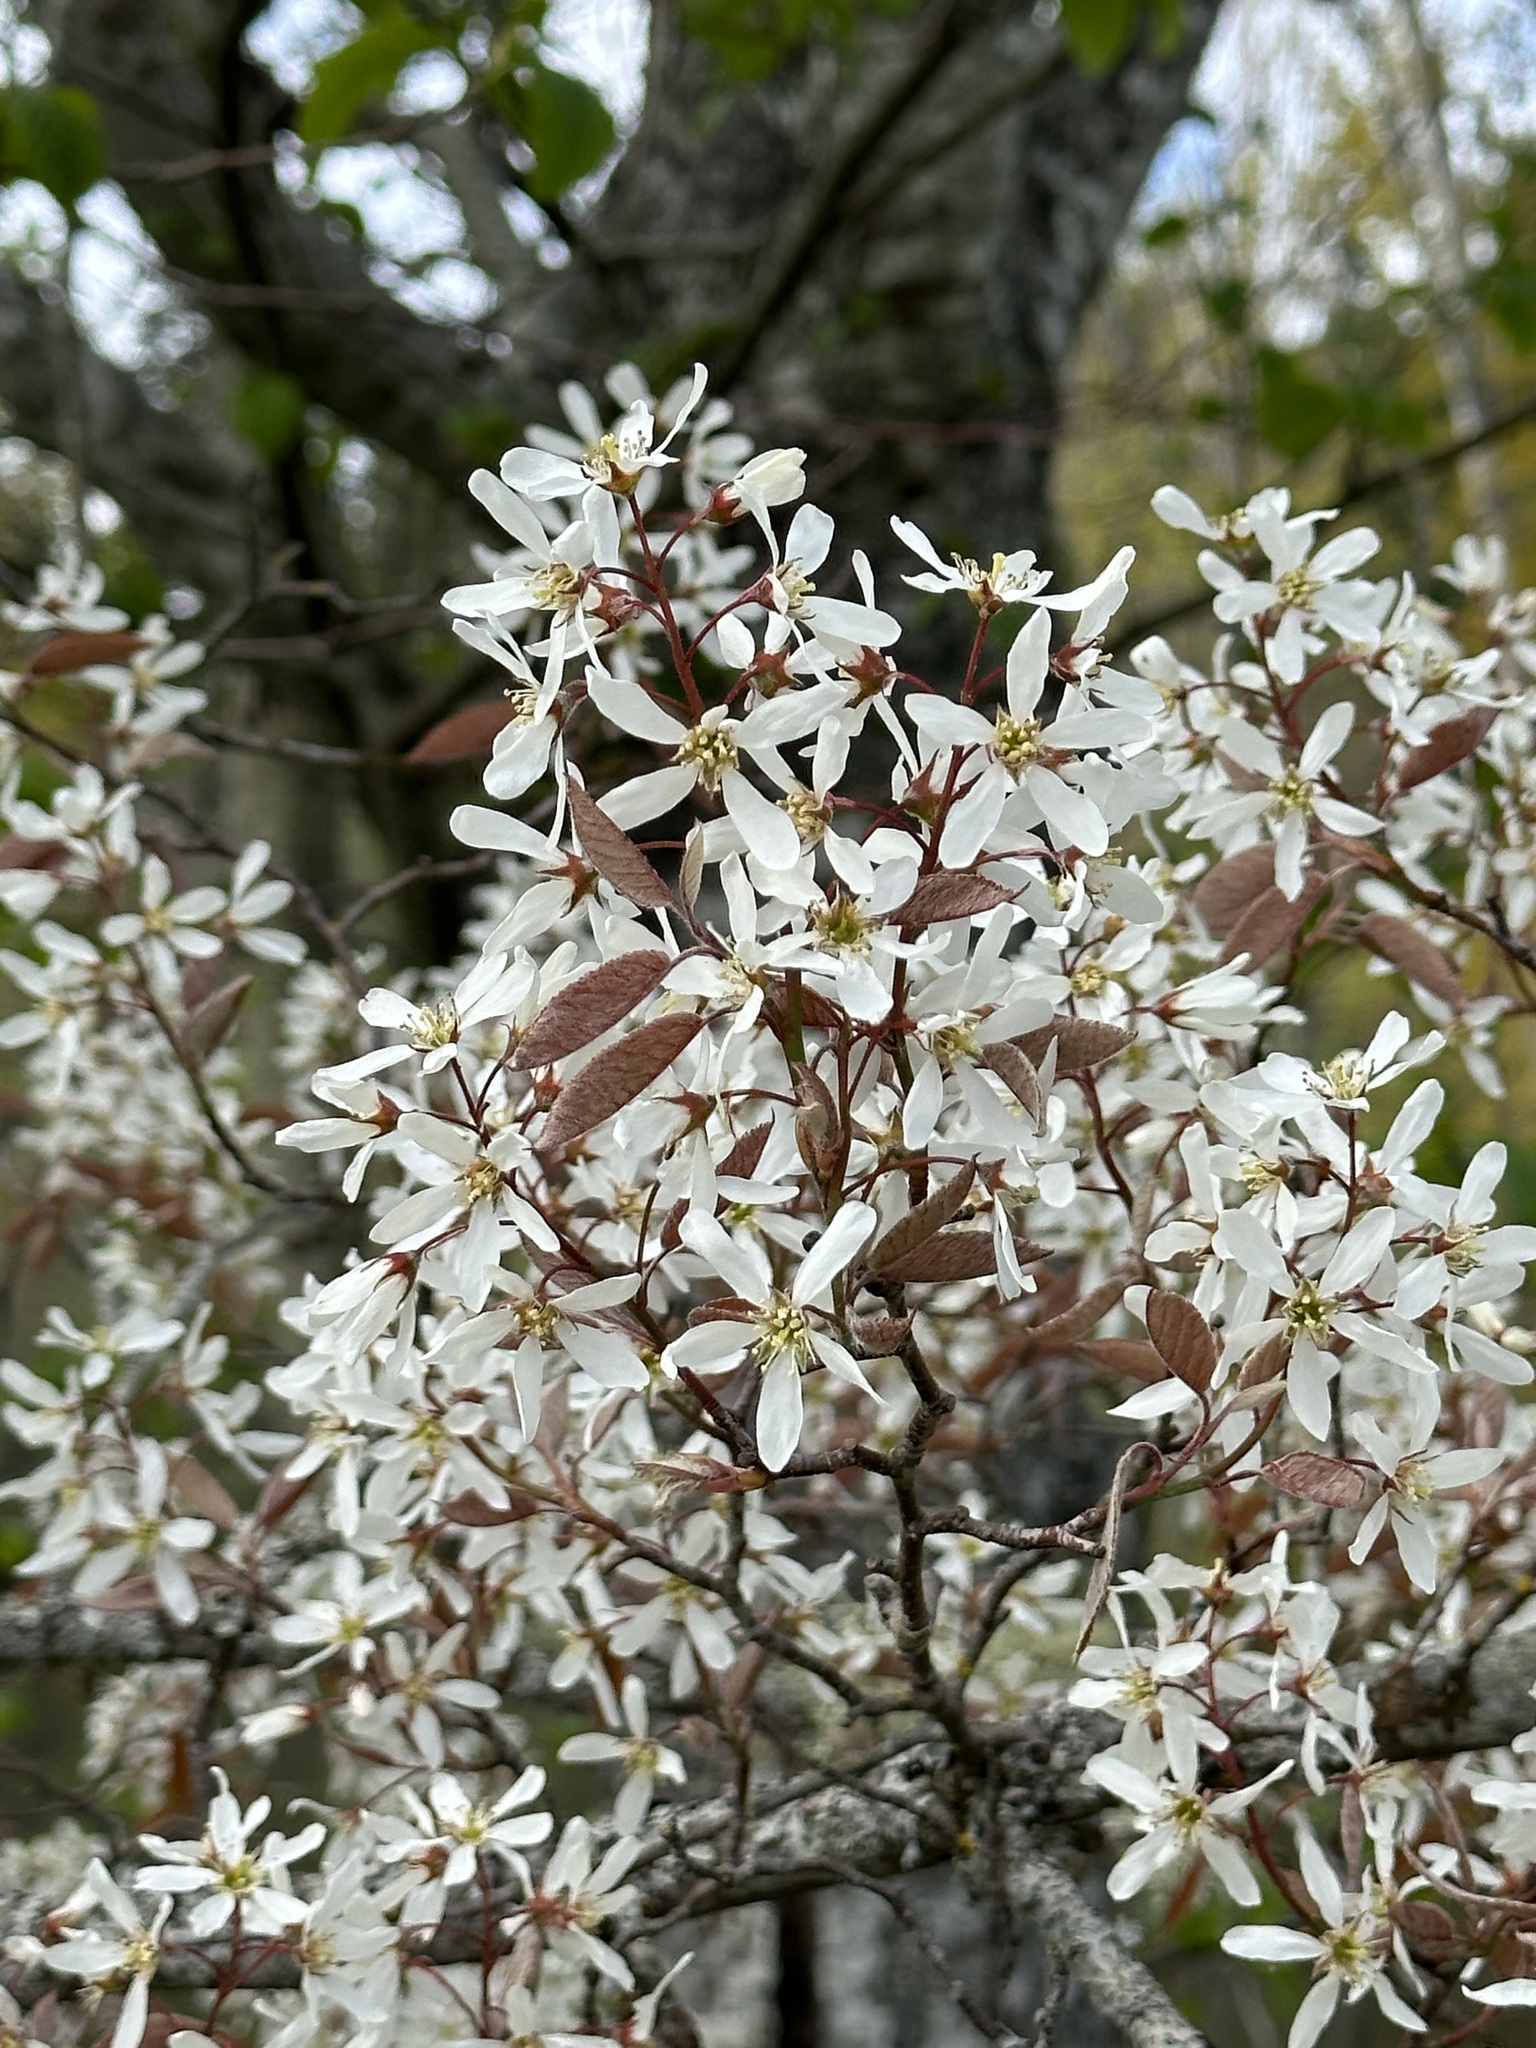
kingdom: Plantae
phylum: Tracheophyta
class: Magnoliopsida
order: Rosales
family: Rosaceae
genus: Amelanchier
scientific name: Amelanchier arborea
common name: Downy serviceberry
